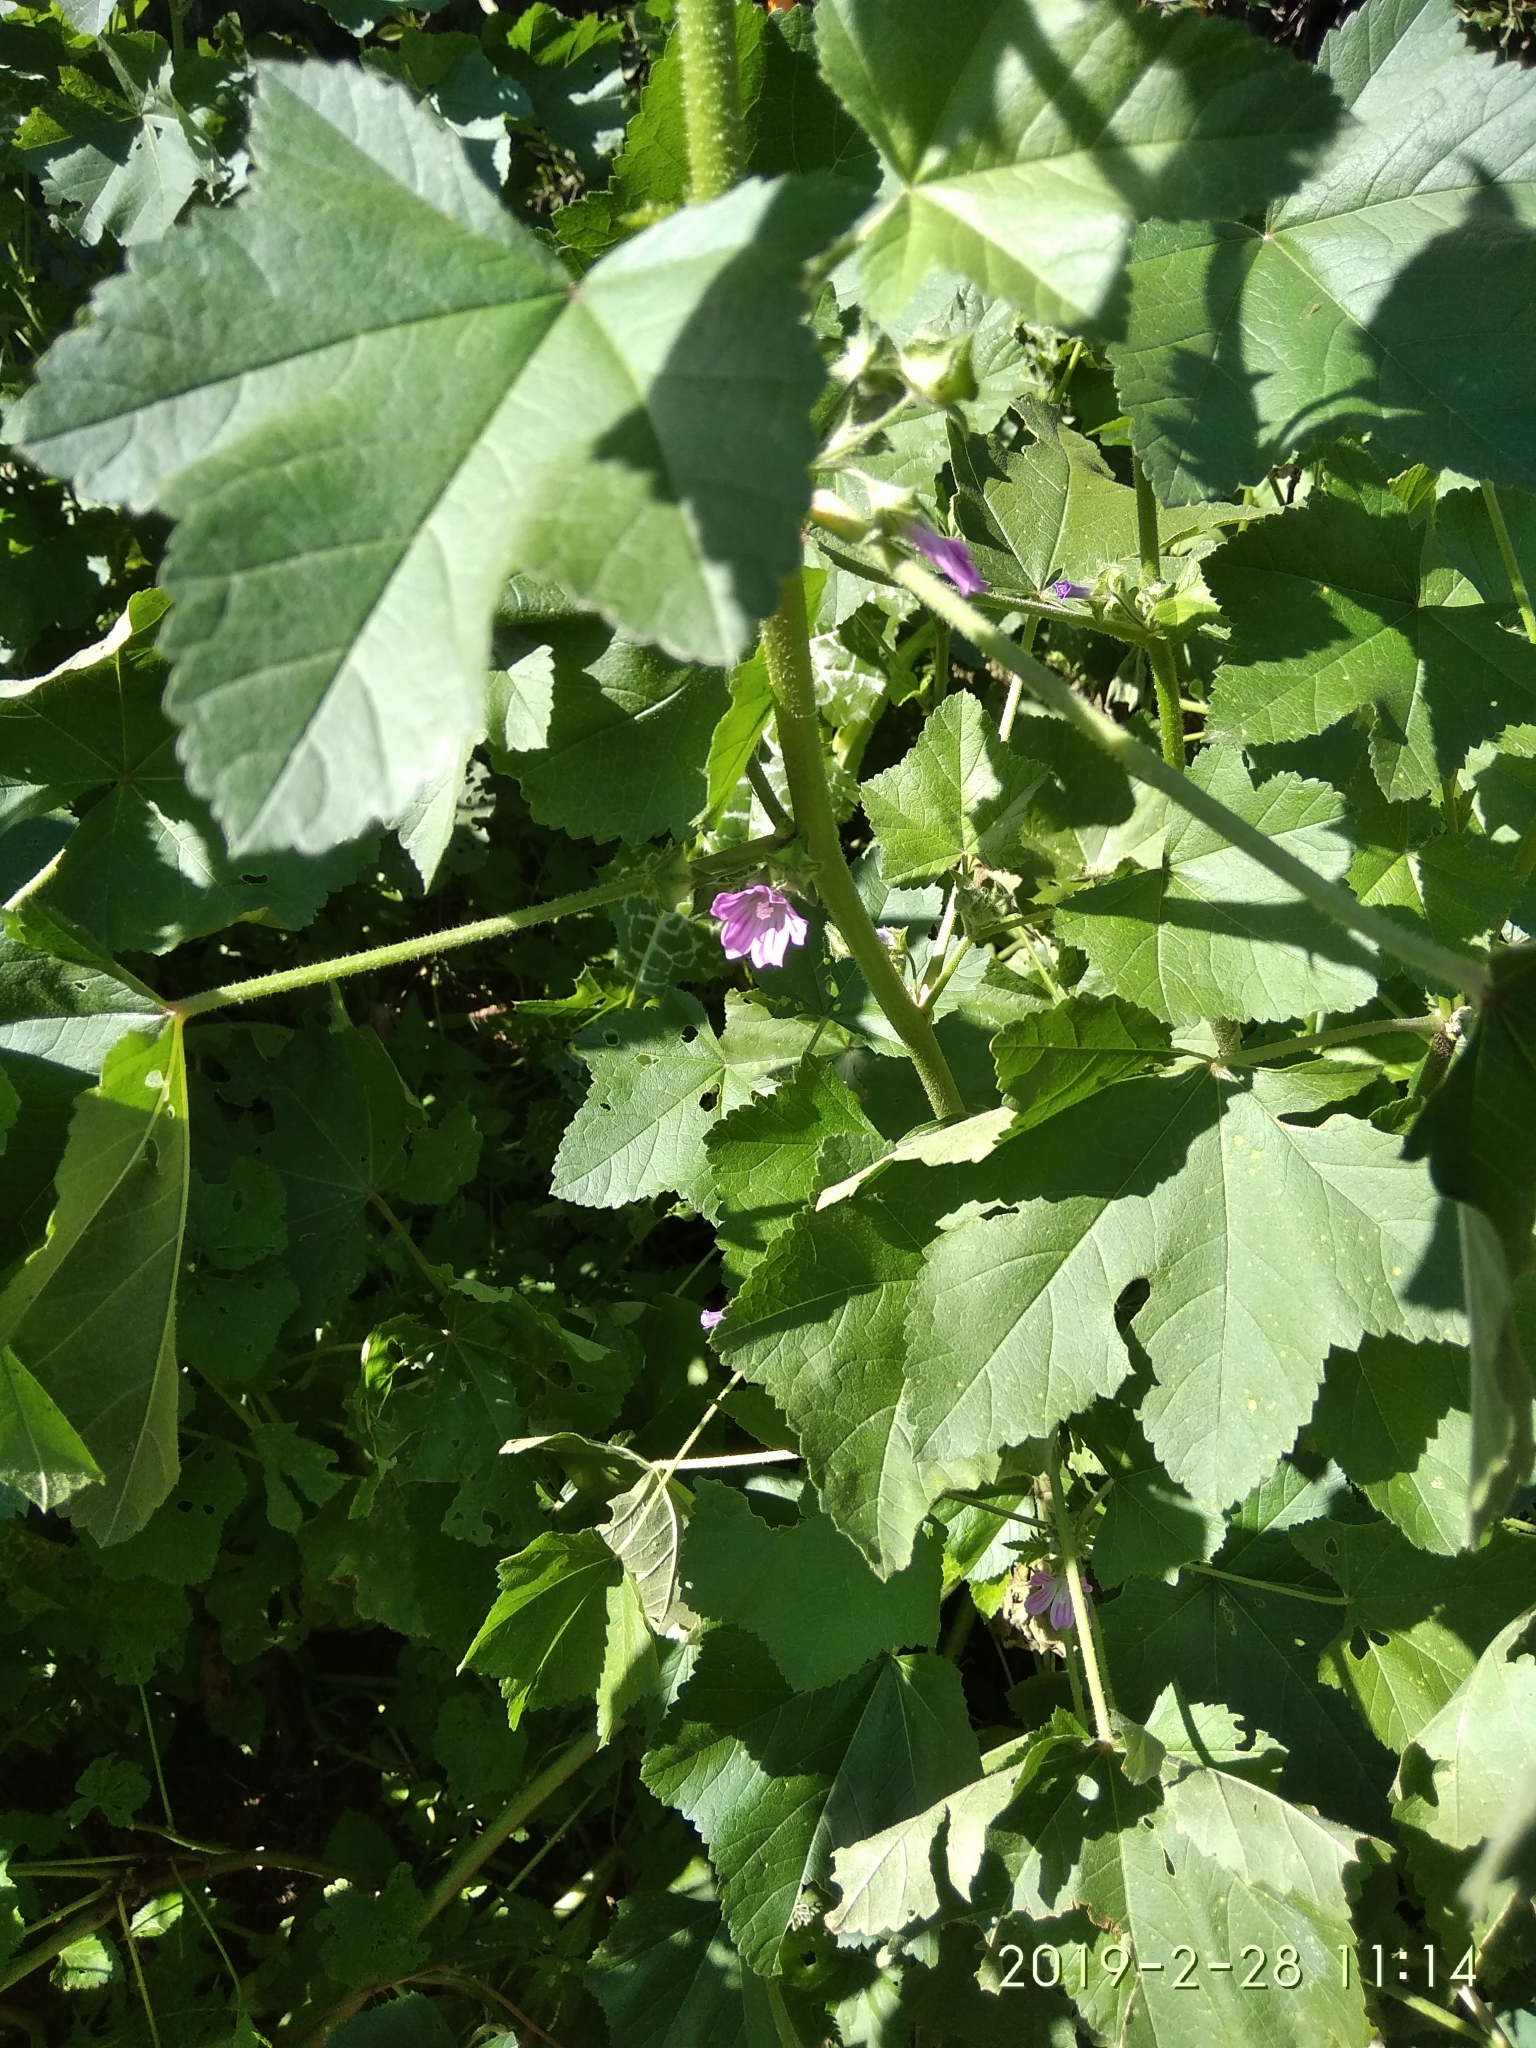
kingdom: Plantae
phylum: Tracheophyta
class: Magnoliopsida
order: Malvales
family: Malvaceae
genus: Malva
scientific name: Malva multiflora
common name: Cheeseweed
